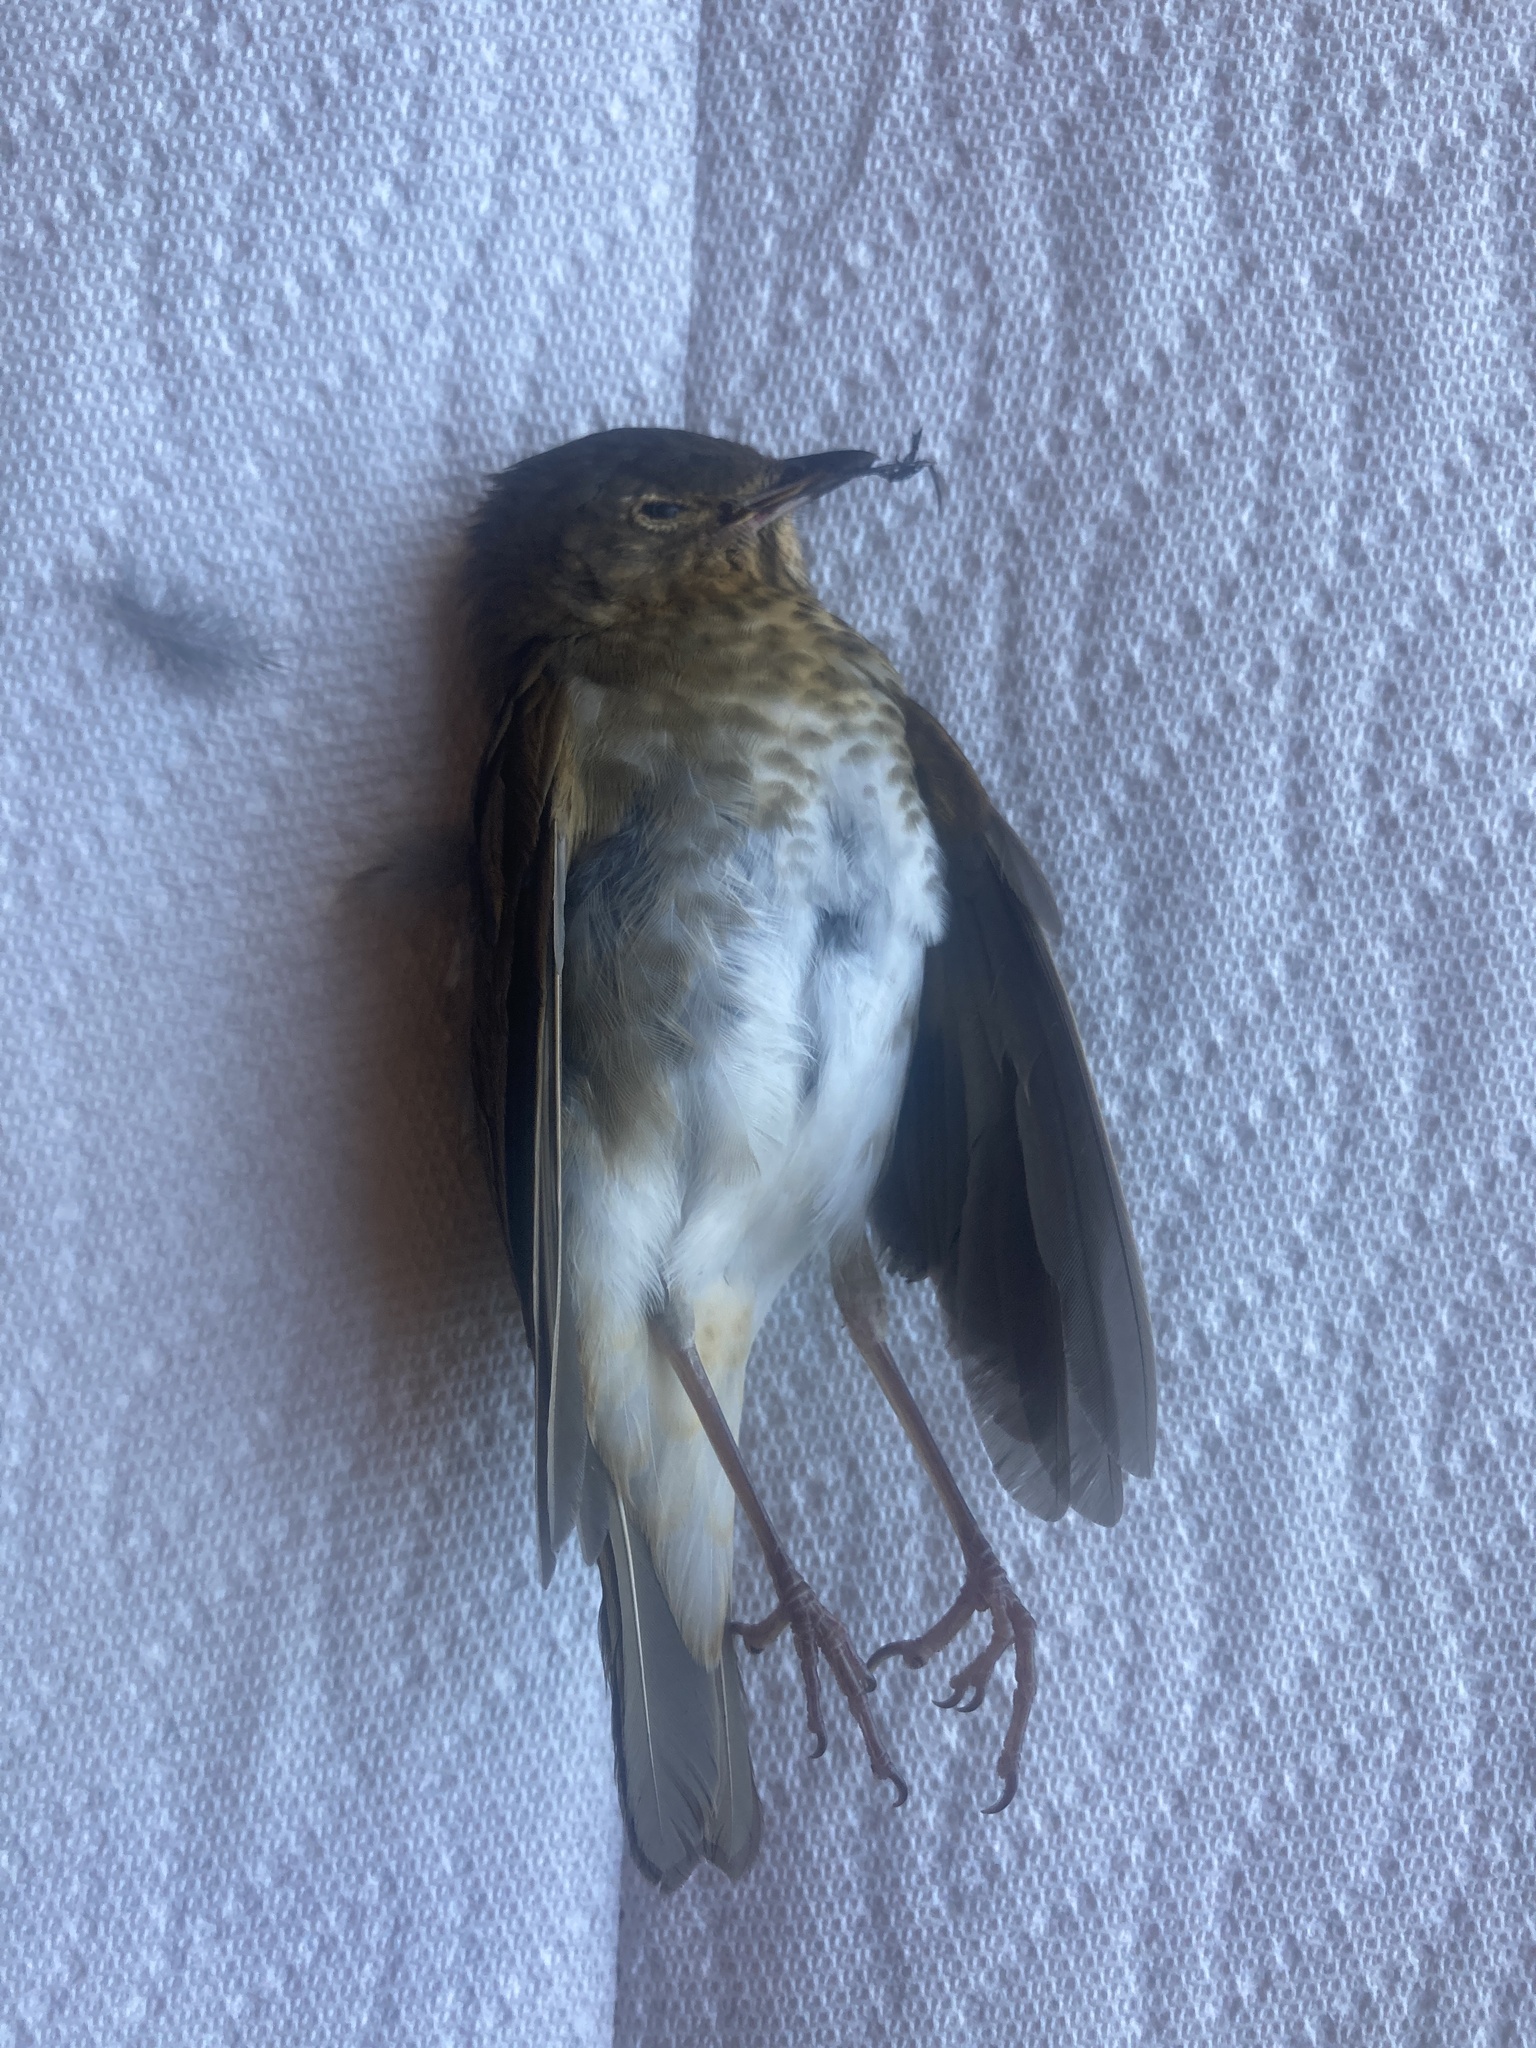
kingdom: Animalia
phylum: Chordata
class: Aves
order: Passeriformes
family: Turdidae
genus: Catharus
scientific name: Catharus ustulatus
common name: Swainson's thrush
